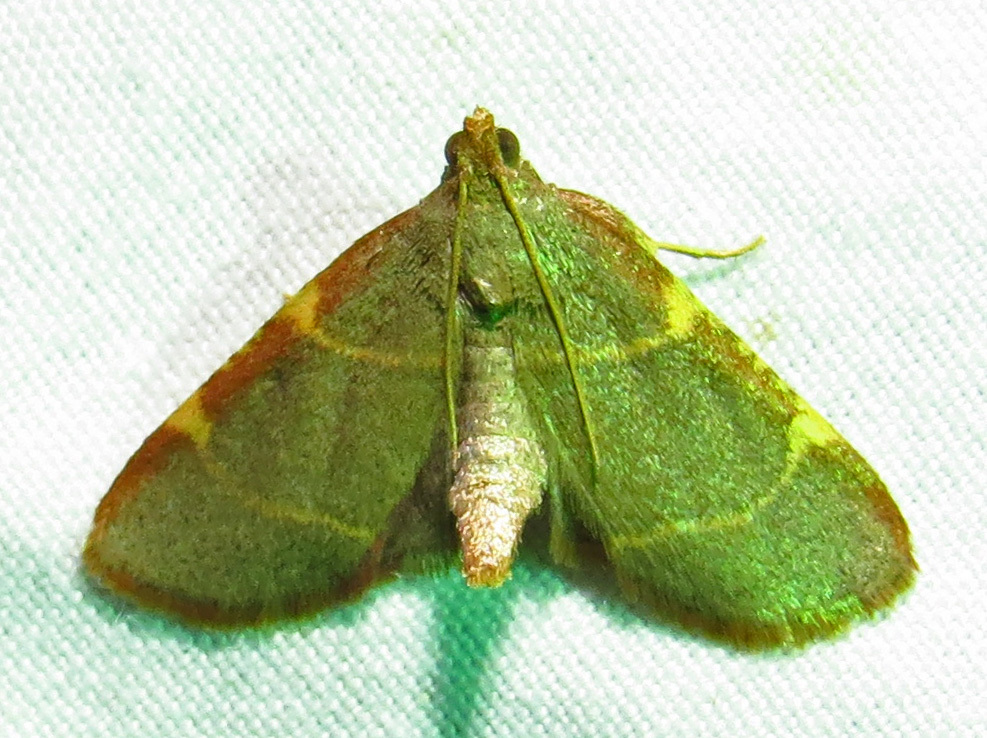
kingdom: Animalia
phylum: Arthropoda
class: Insecta
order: Lepidoptera
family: Pyralidae
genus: Hypsopygia
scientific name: Hypsopygia binodulalis
